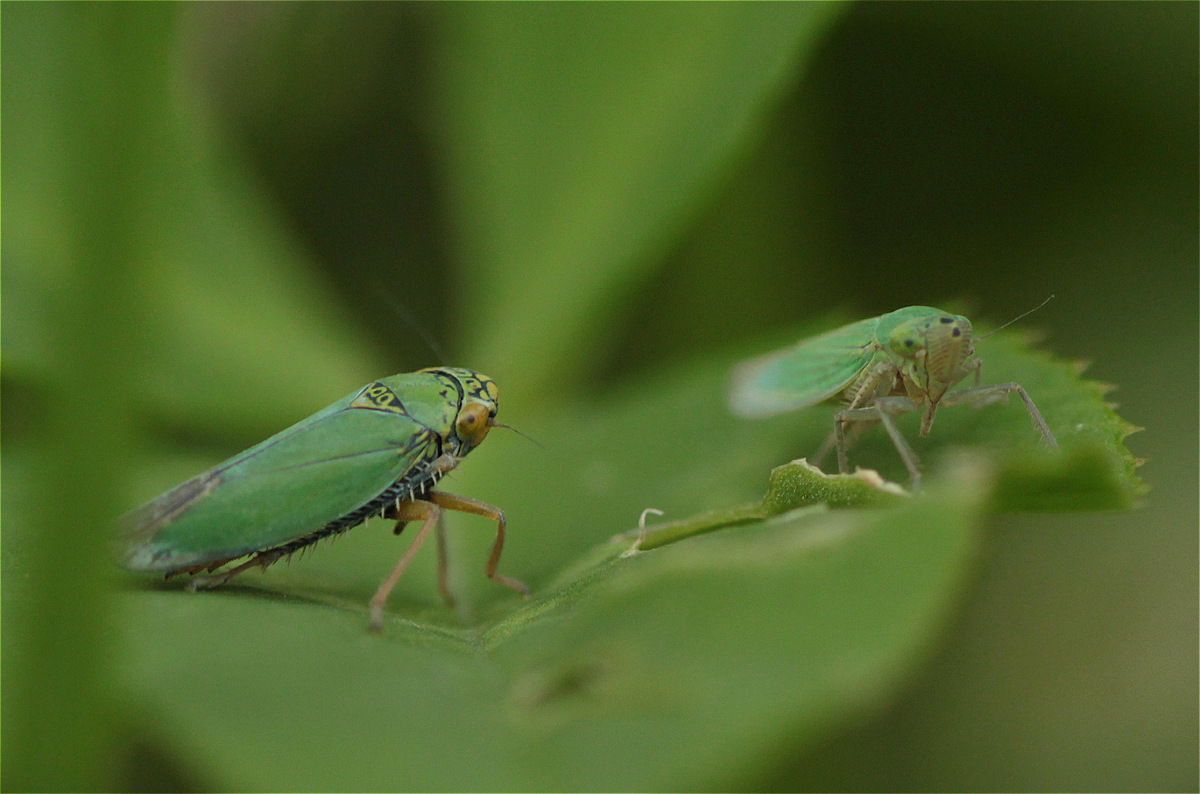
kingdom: Animalia
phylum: Arthropoda
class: Insecta
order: Hemiptera
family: Cicadellidae
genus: Tortigonalia
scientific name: Tortigonalia longicaudata
